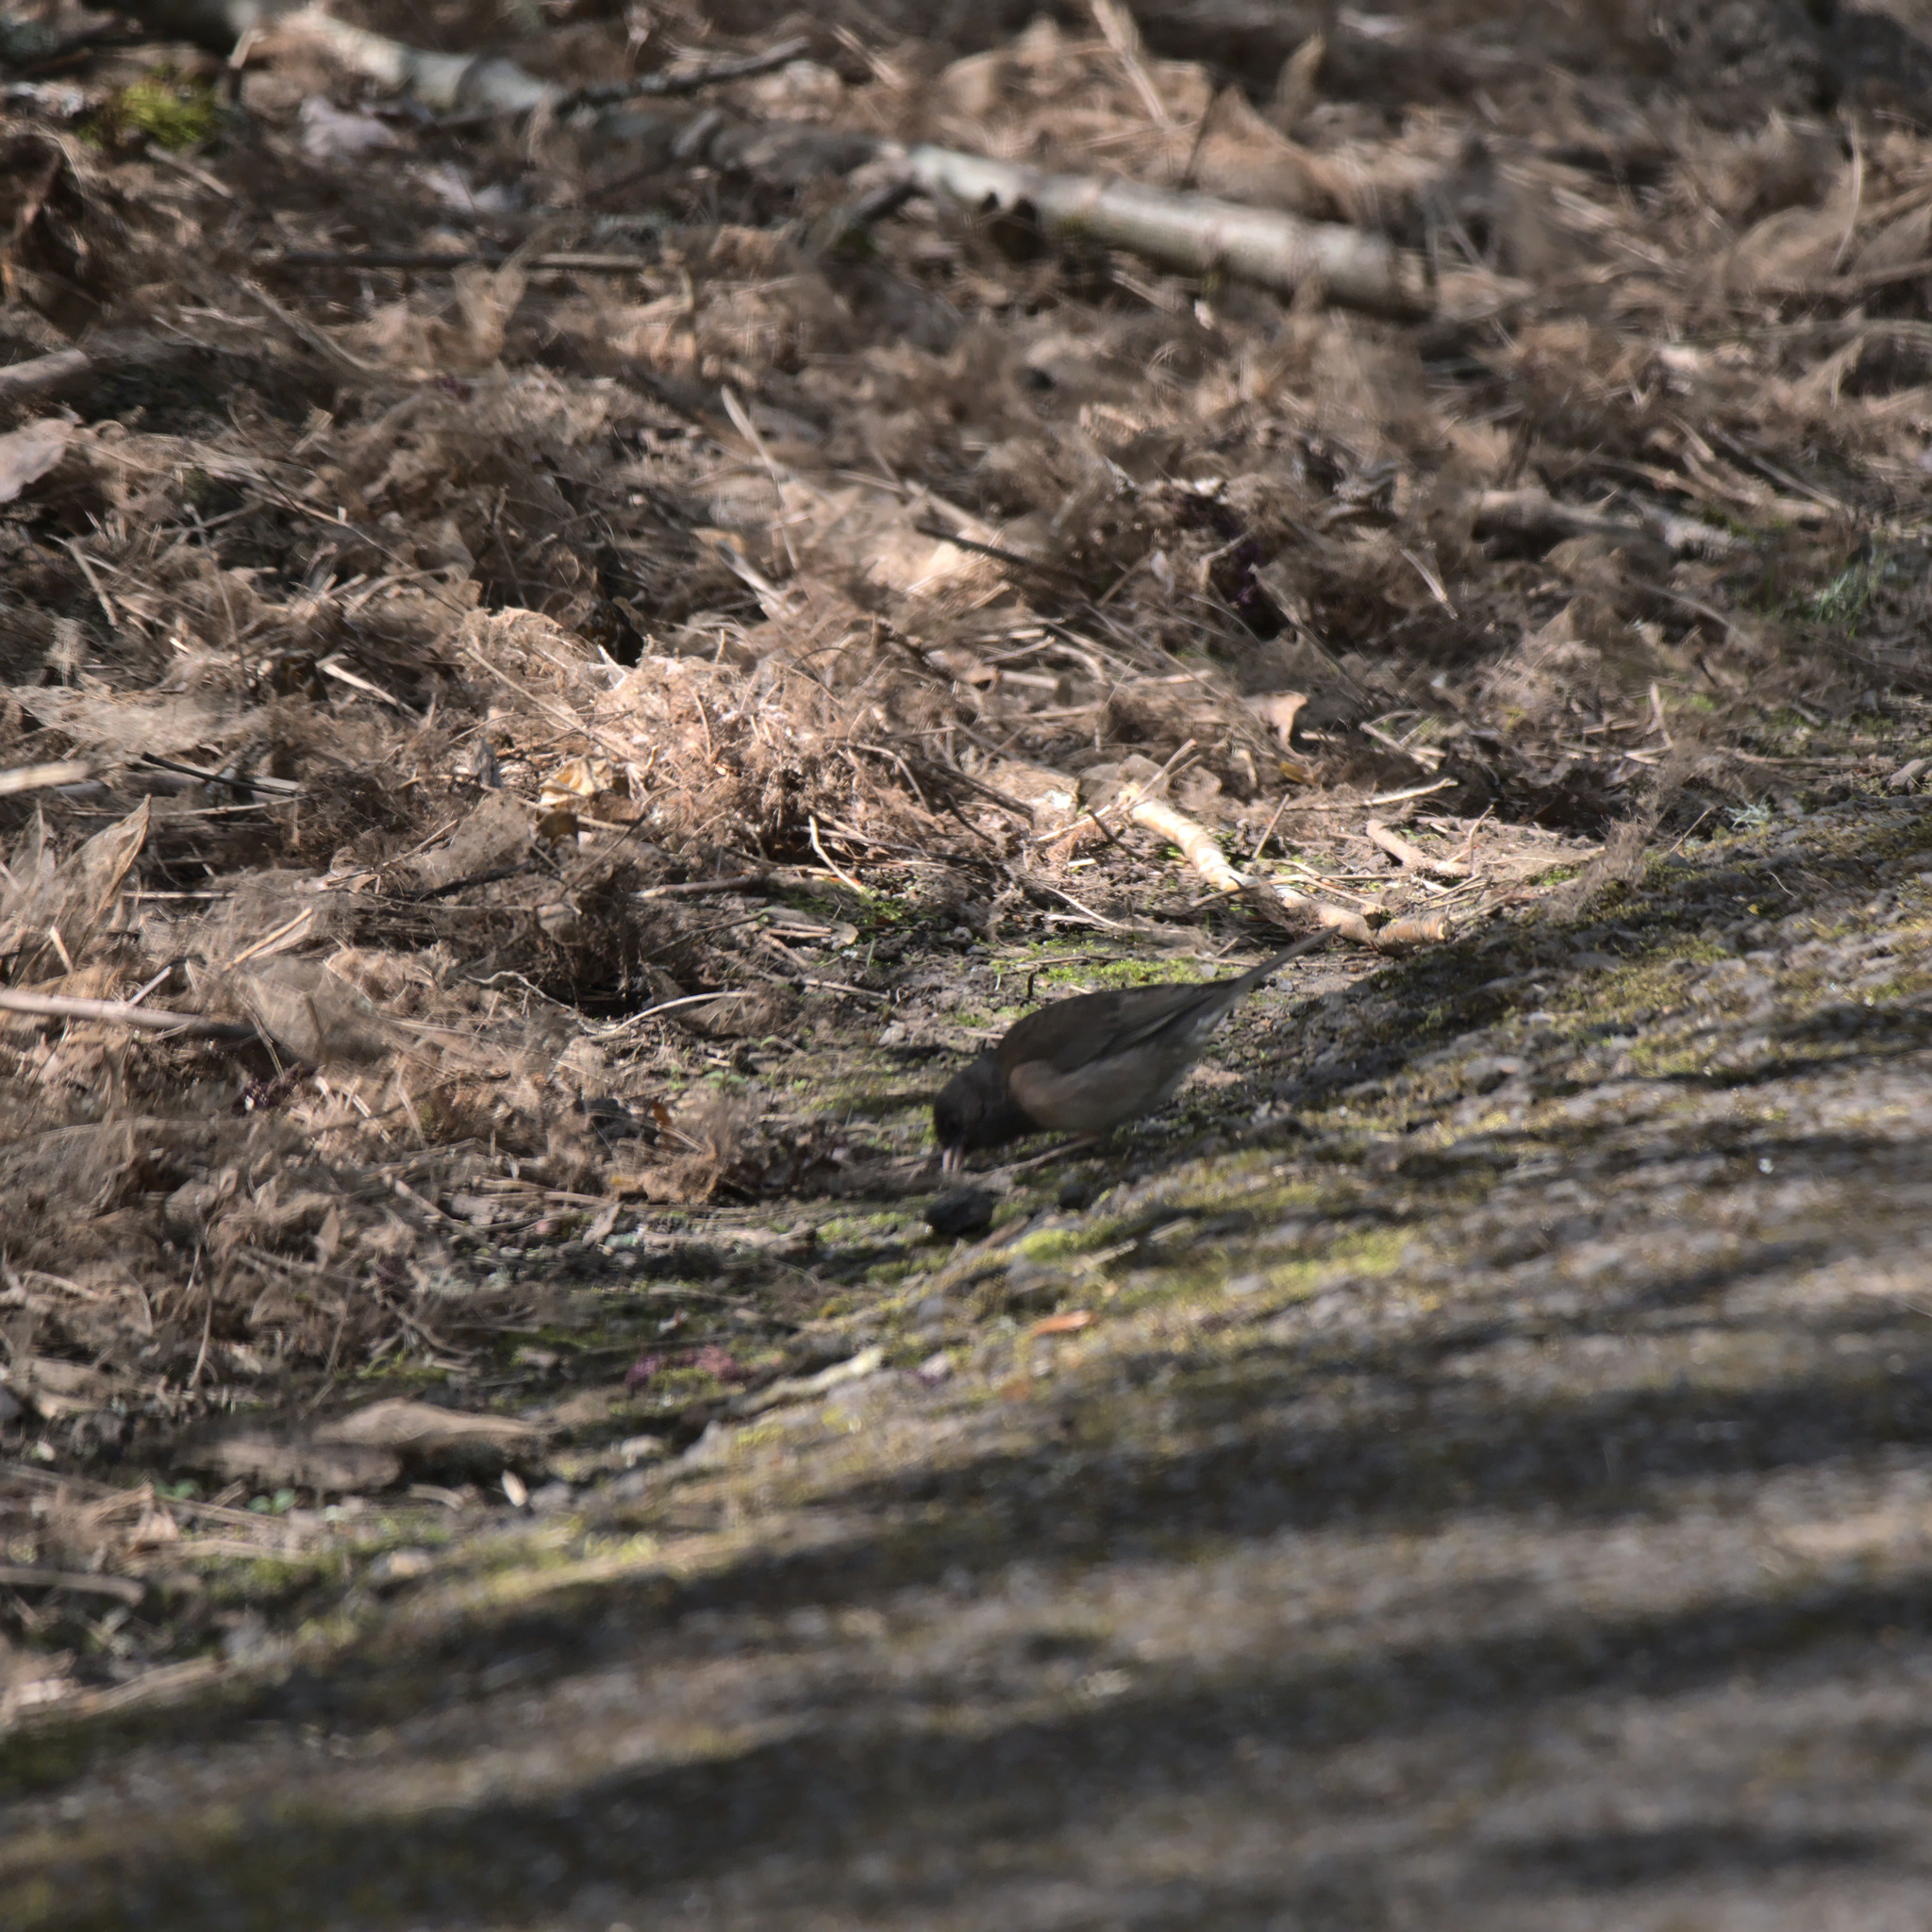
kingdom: Animalia
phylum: Chordata
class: Aves
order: Passeriformes
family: Passerellidae
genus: Junco
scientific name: Junco hyemalis
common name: Dark-eyed junco
